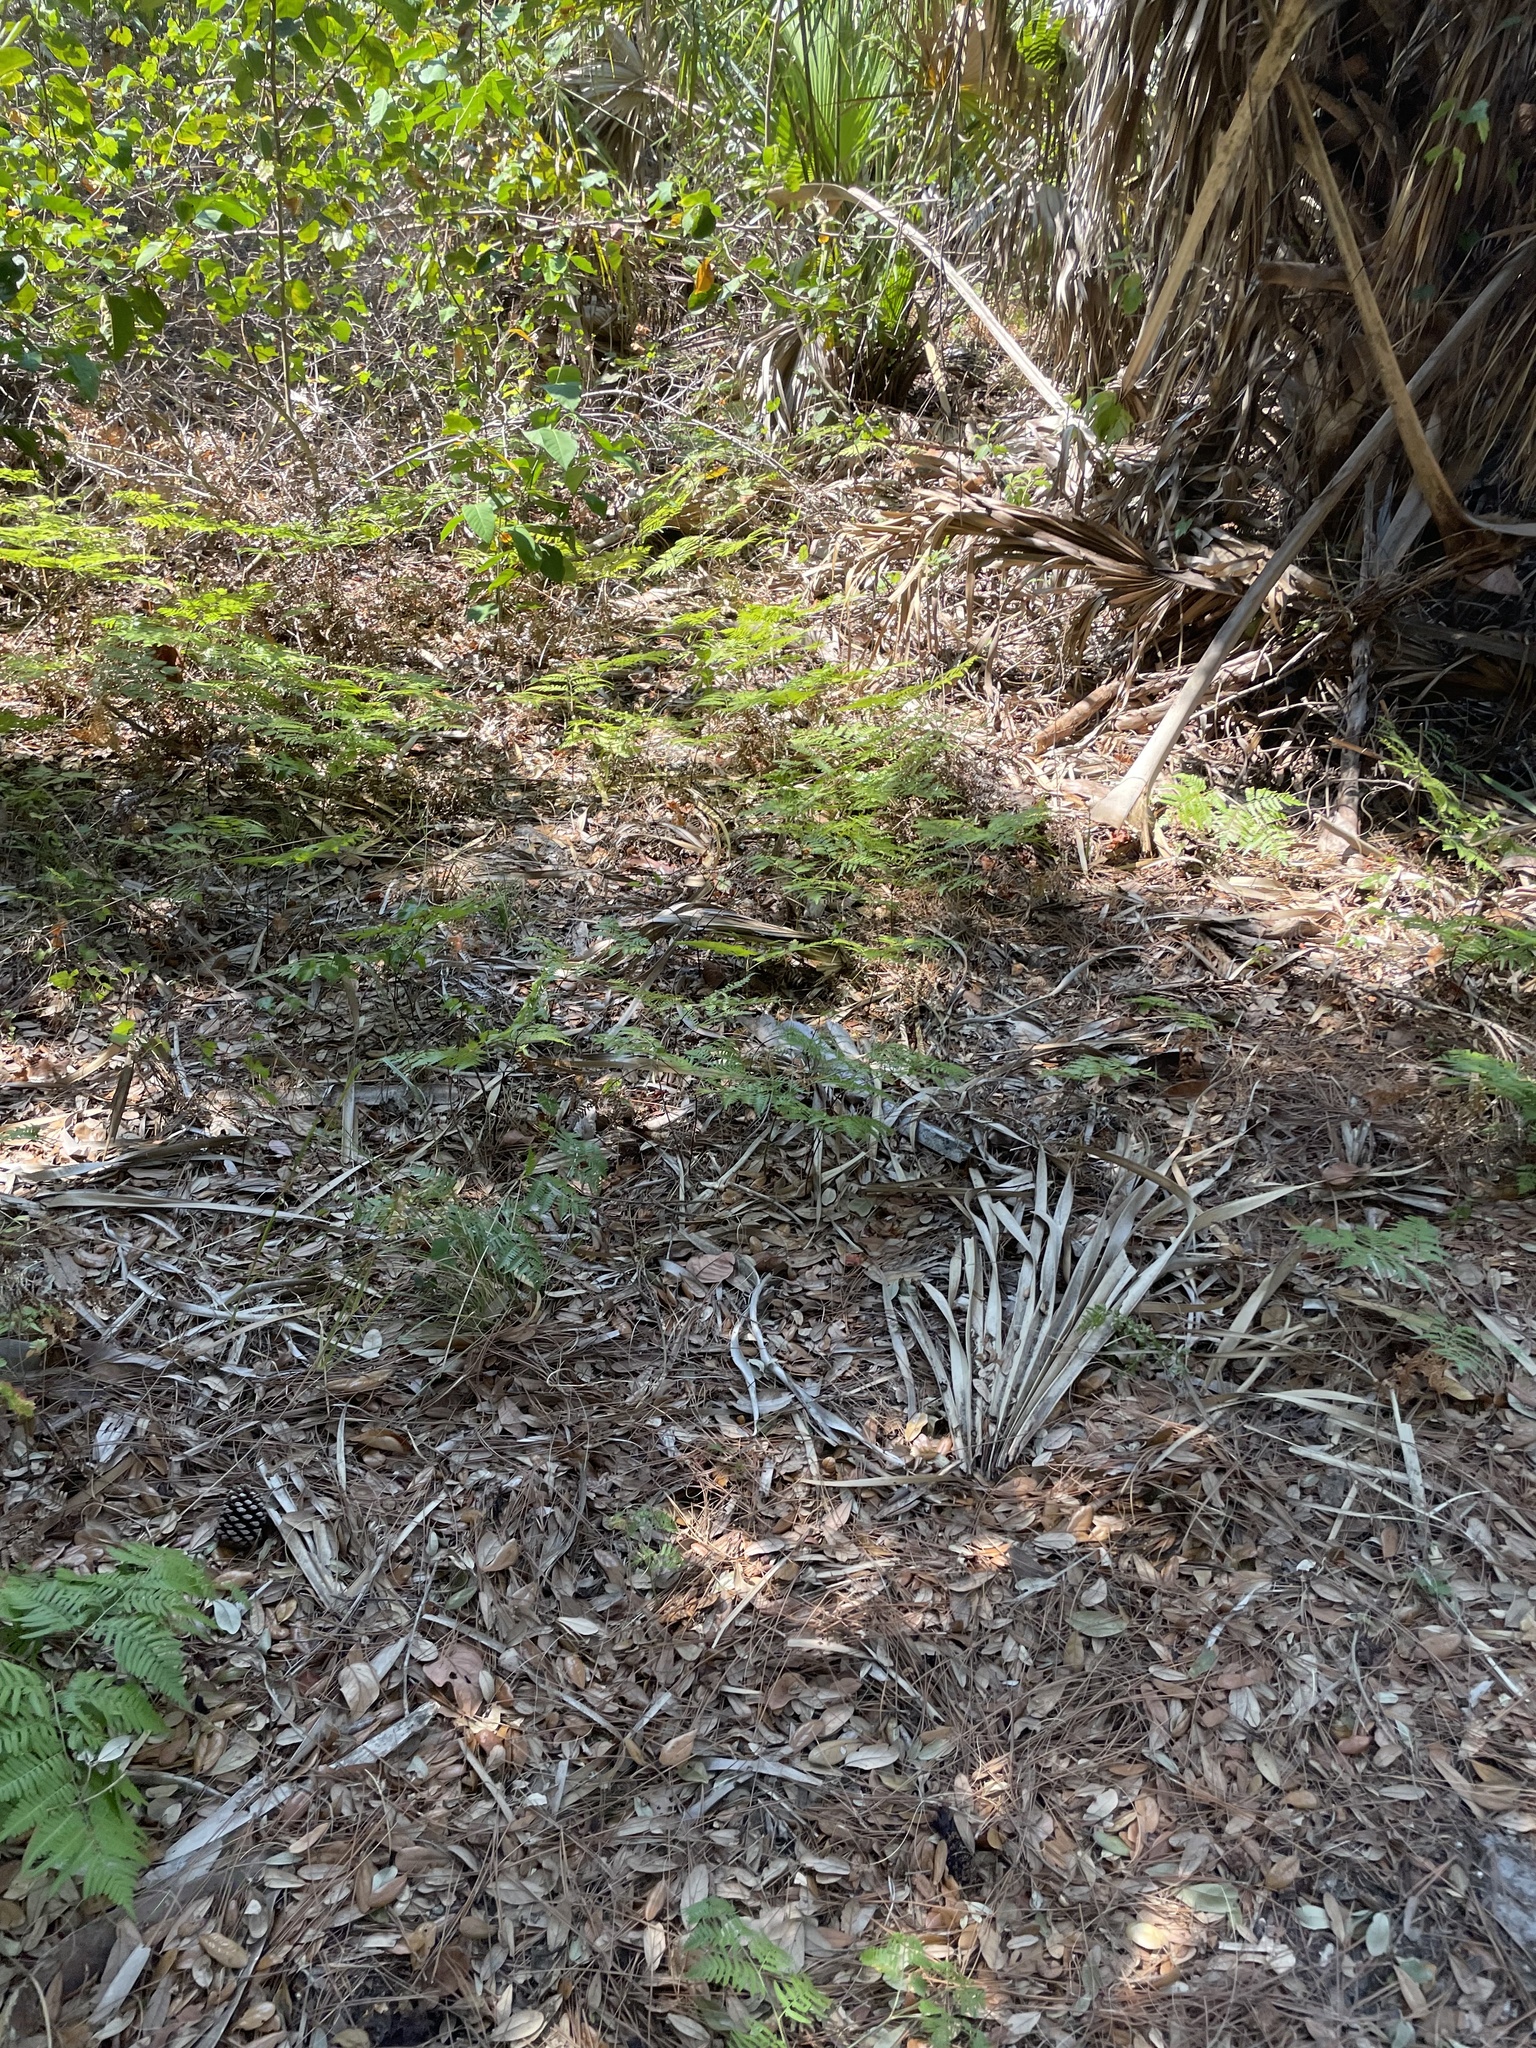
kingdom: Plantae
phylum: Tracheophyta
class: Polypodiopsida
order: Polypodiales
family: Dennstaedtiaceae
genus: Pteridium
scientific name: Pteridium
